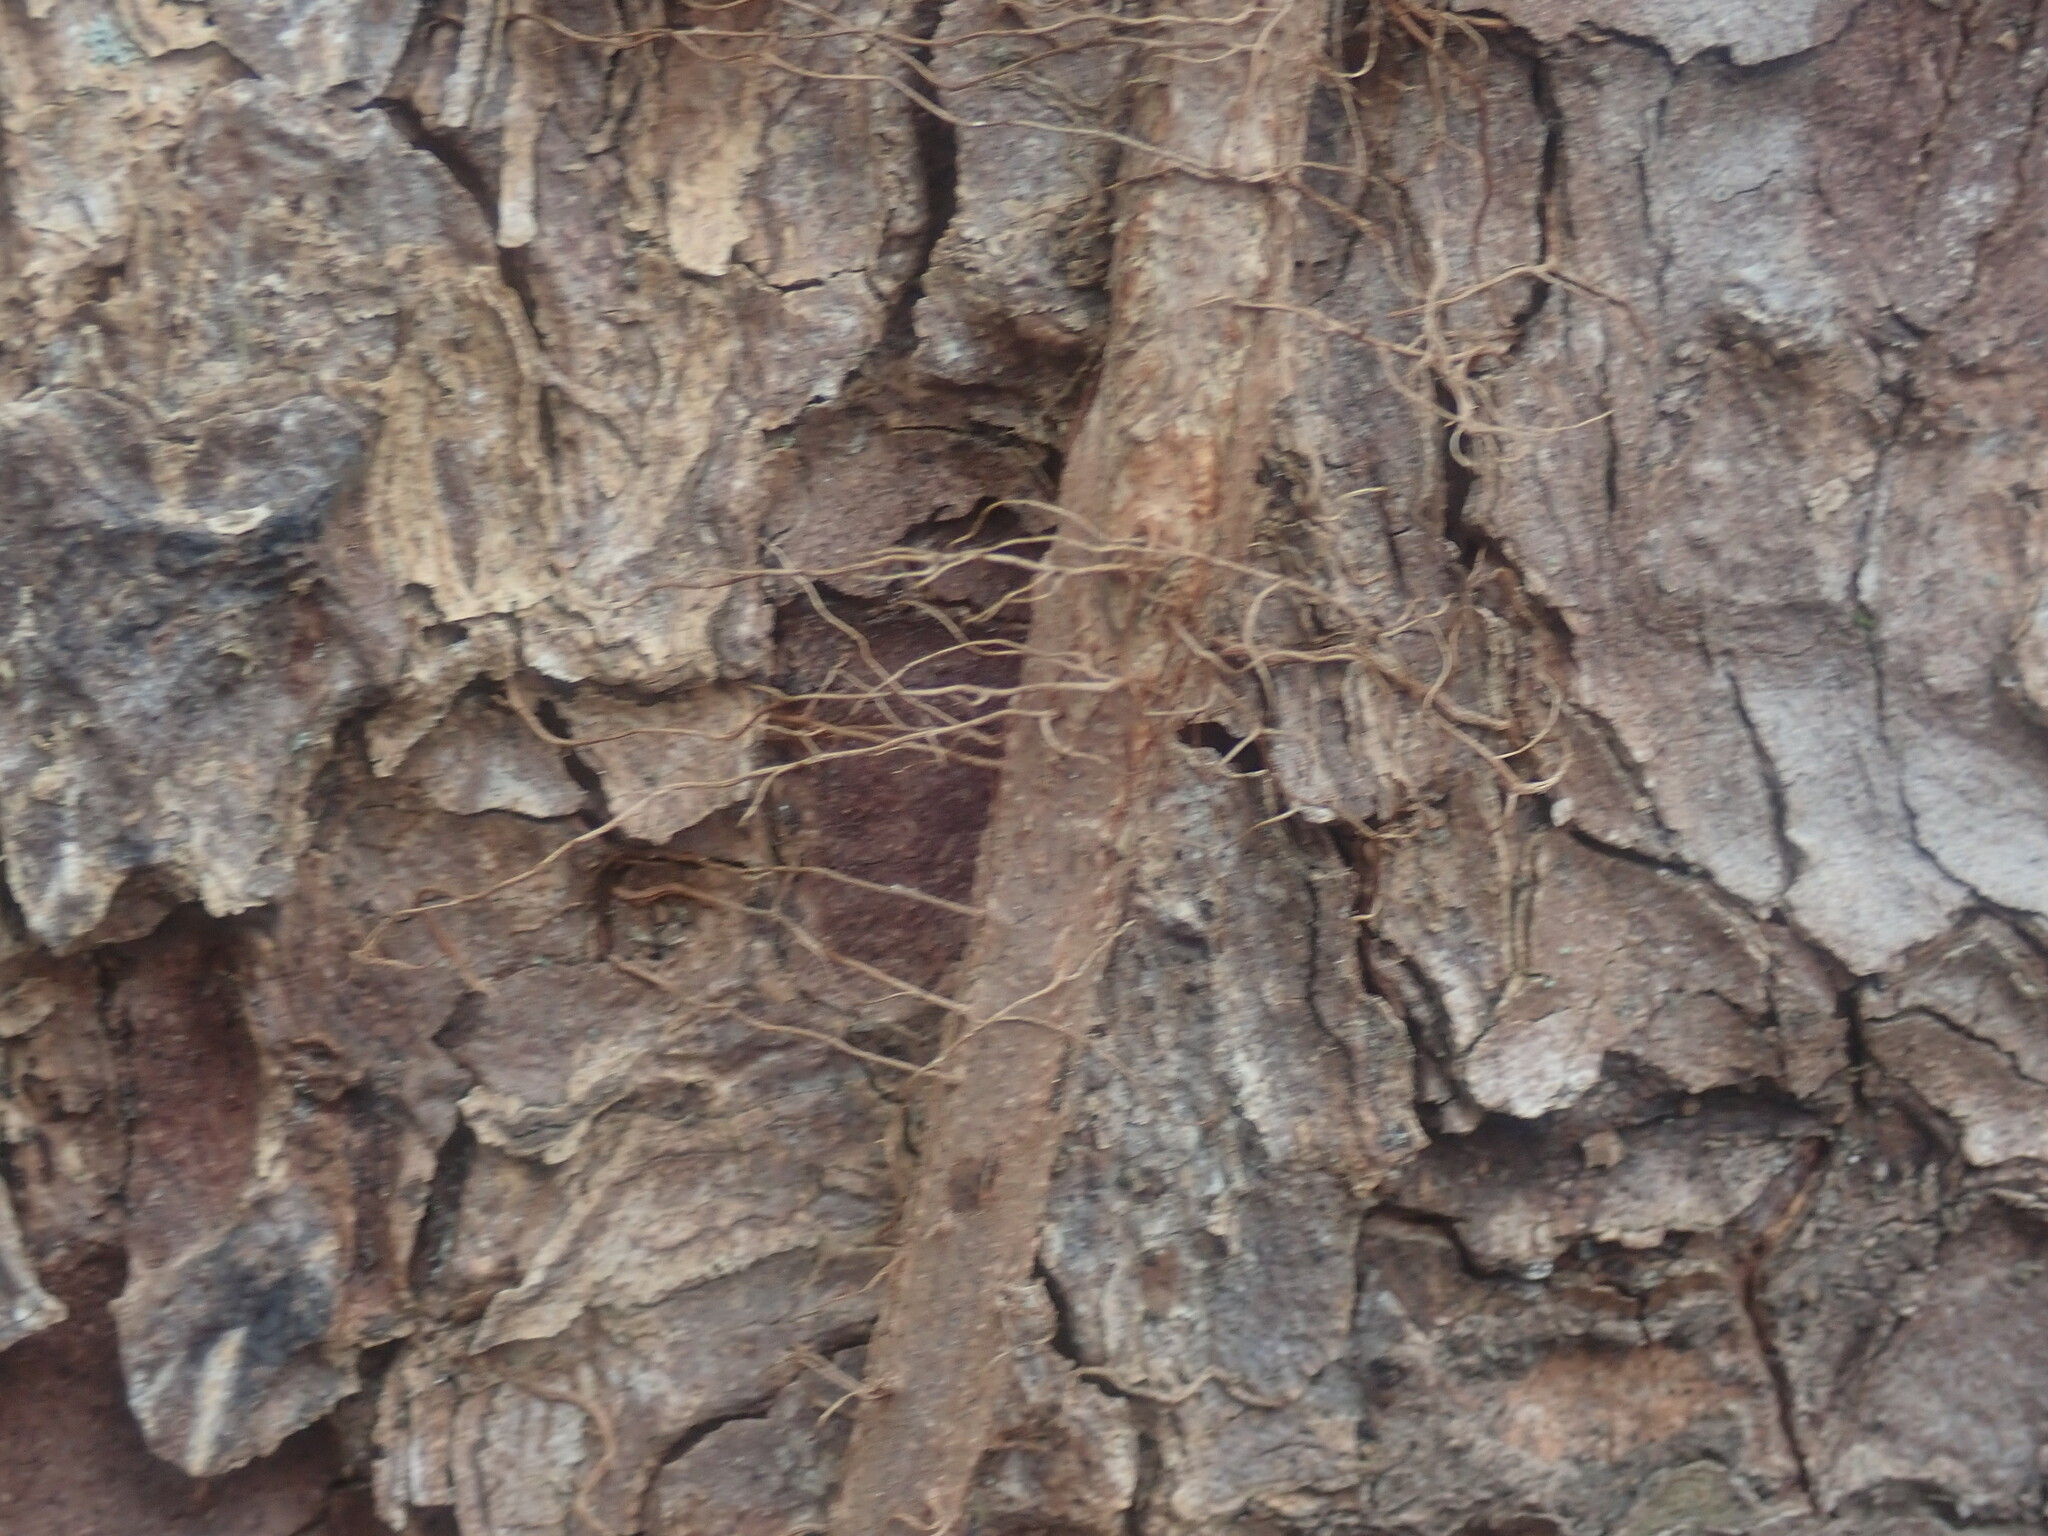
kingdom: Plantae
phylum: Tracheophyta
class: Magnoliopsida
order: Sapindales
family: Anacardiaceae
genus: Toxicodendron
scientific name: Toxicodendron radicans
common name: Poison ivy
